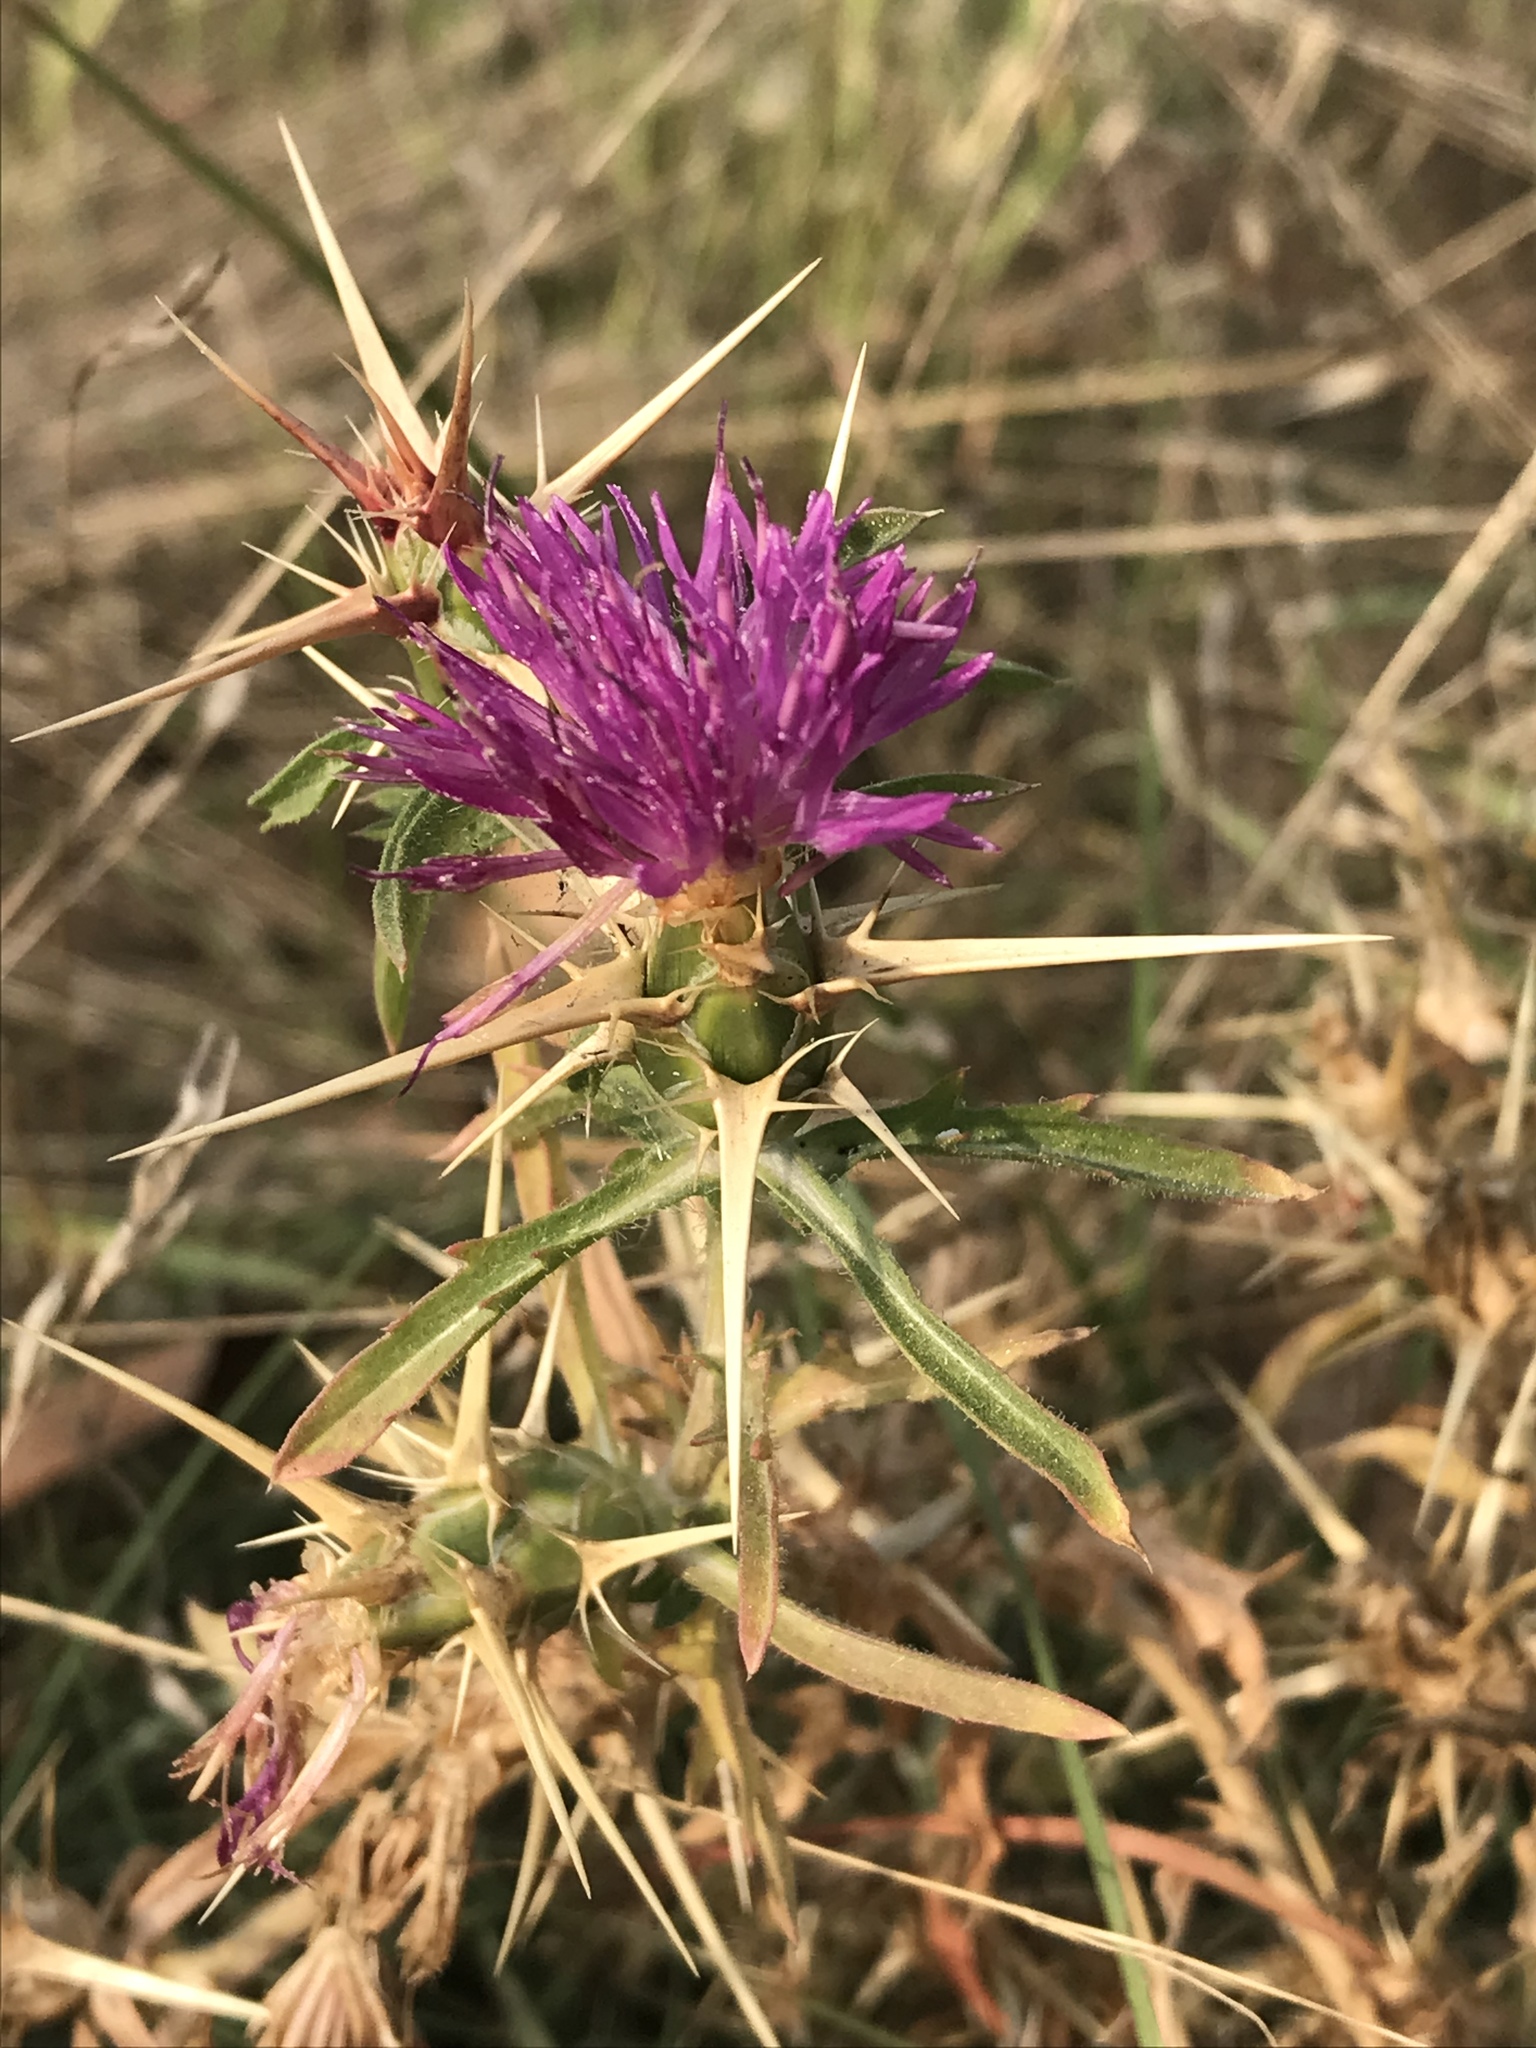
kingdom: Plantae
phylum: Tracheophyta
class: Magnoliopsida
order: Asterales
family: Asteraceae
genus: Centaurea
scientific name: Centaurea calcitrapa
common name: Red star-thistle
